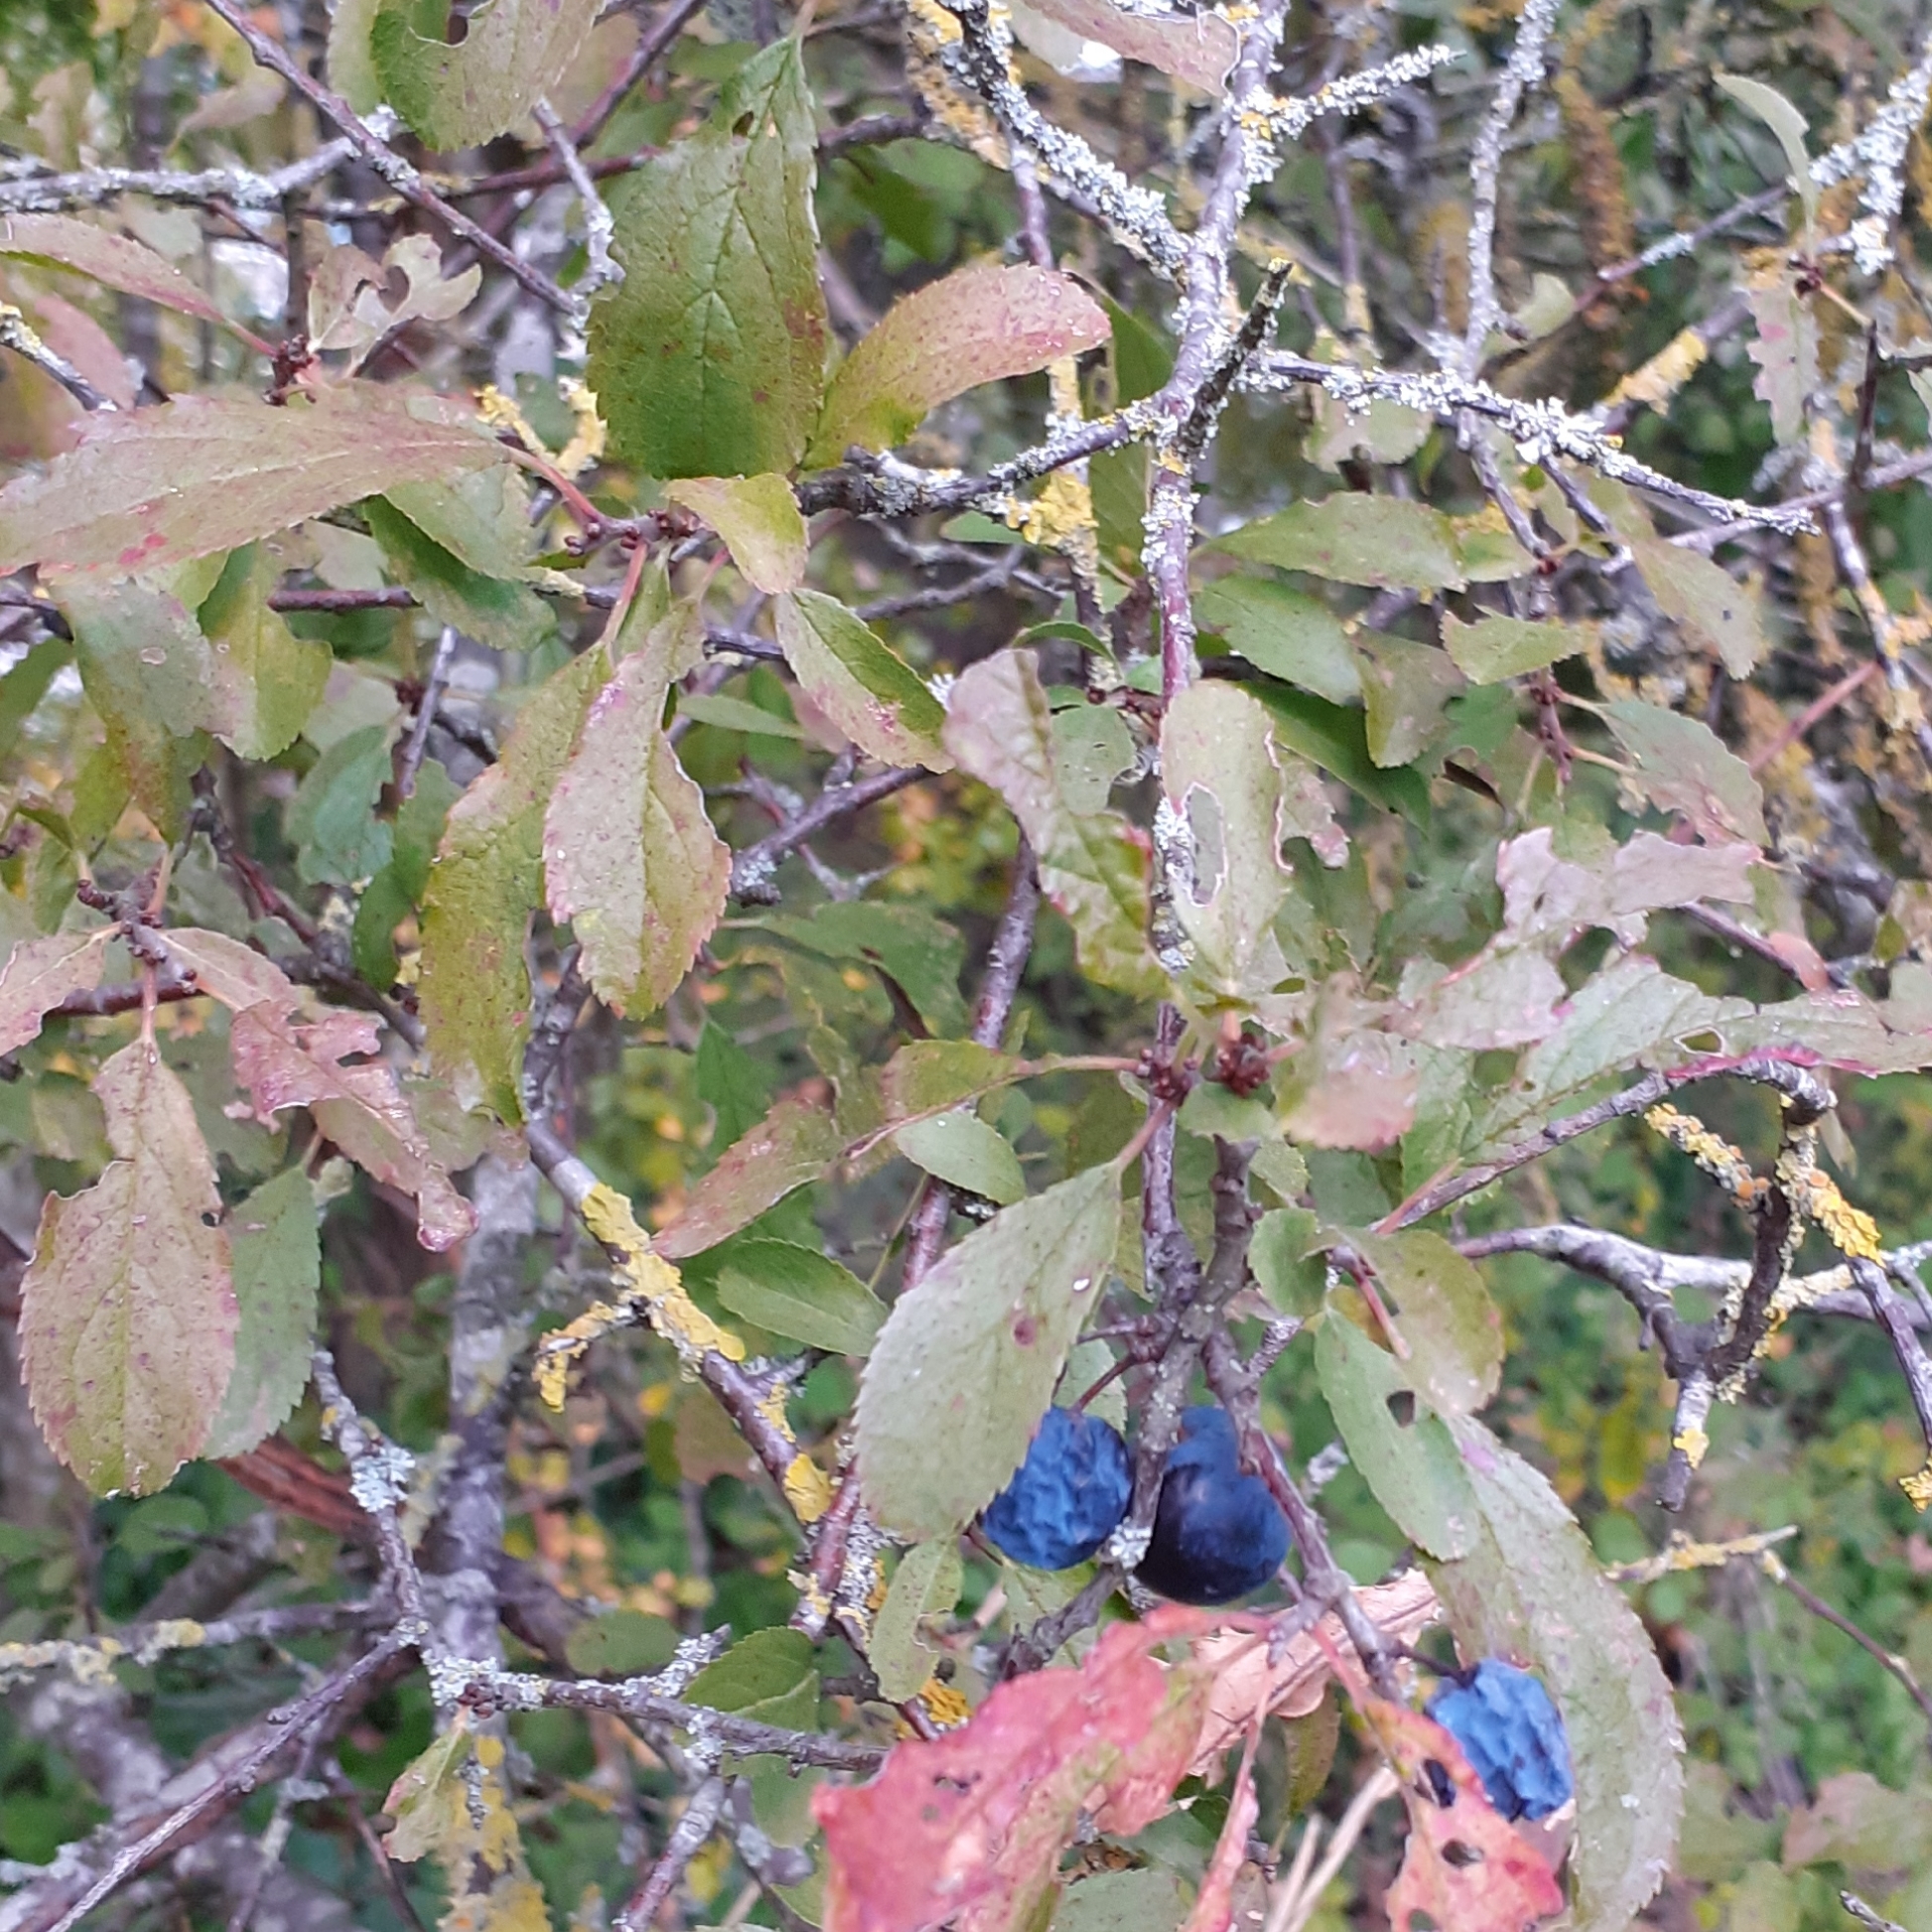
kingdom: Plantae
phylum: Tracheophyta
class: Magnoliopsida
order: Rosales
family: Rosaceae
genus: Prunus
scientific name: Prunus spinosa
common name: Blackthorn
